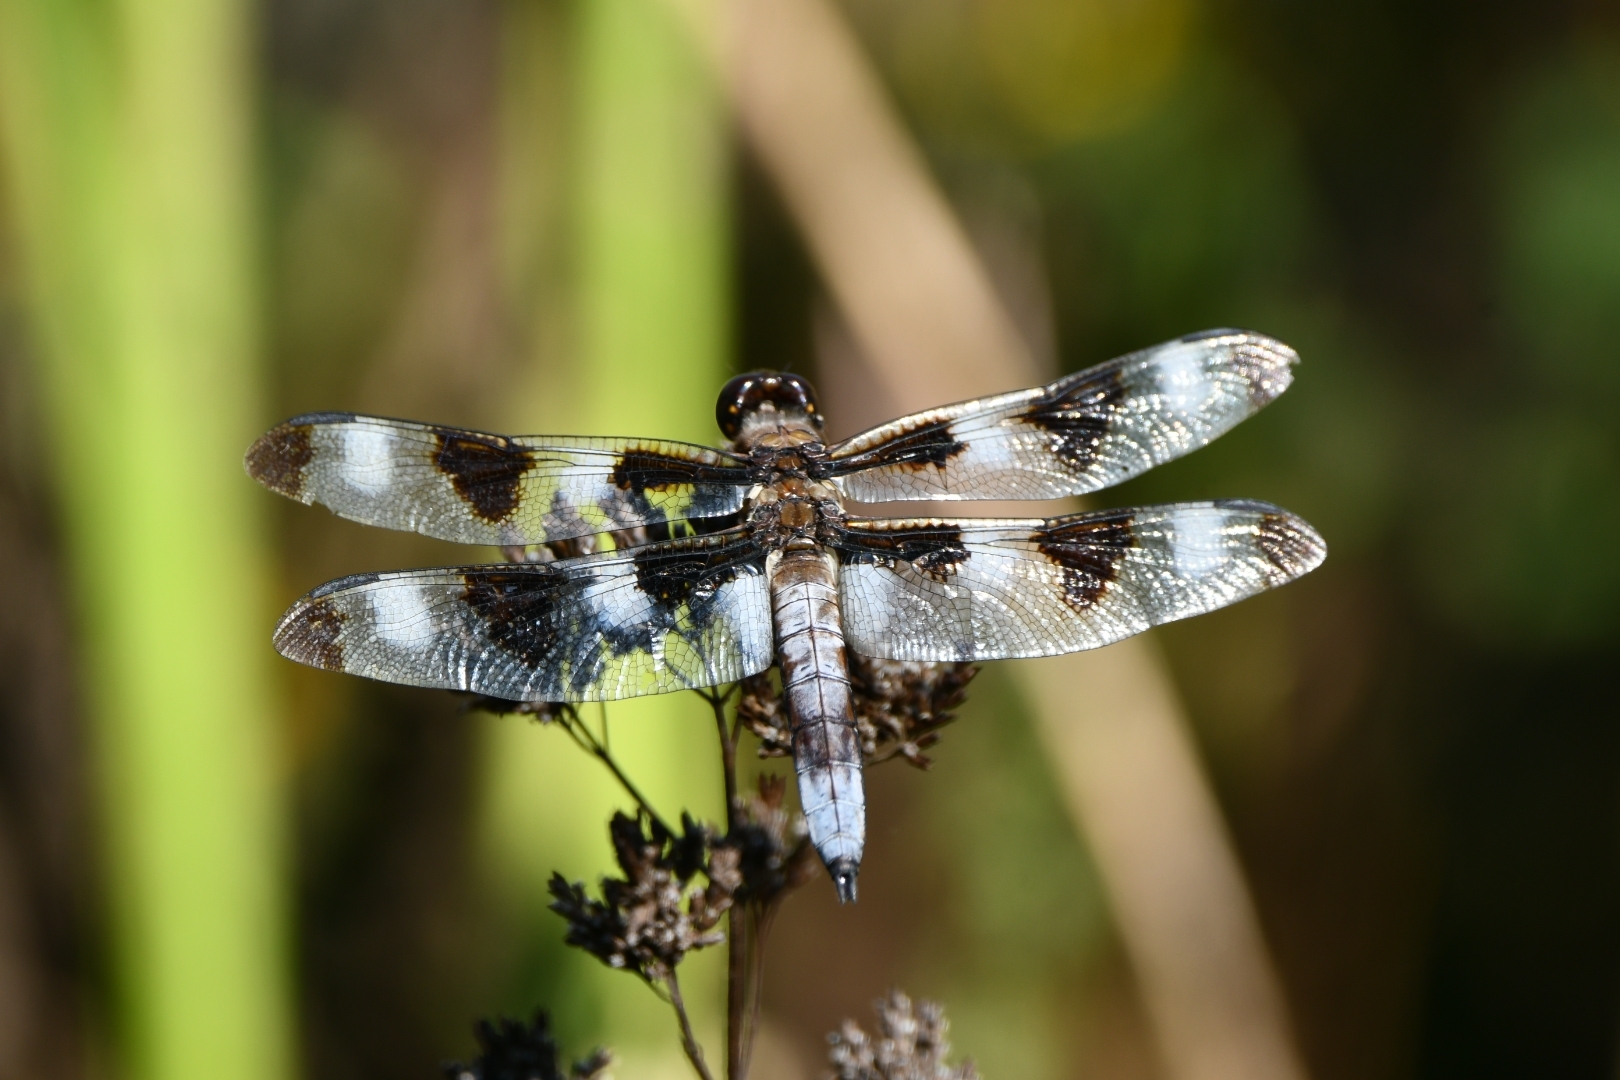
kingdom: Animalia
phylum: Arthropoda
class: Insecta
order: Odonata
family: Libellulidae
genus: Libellula
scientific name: Libellula pulchella
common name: Twelve-spotted skimmer
